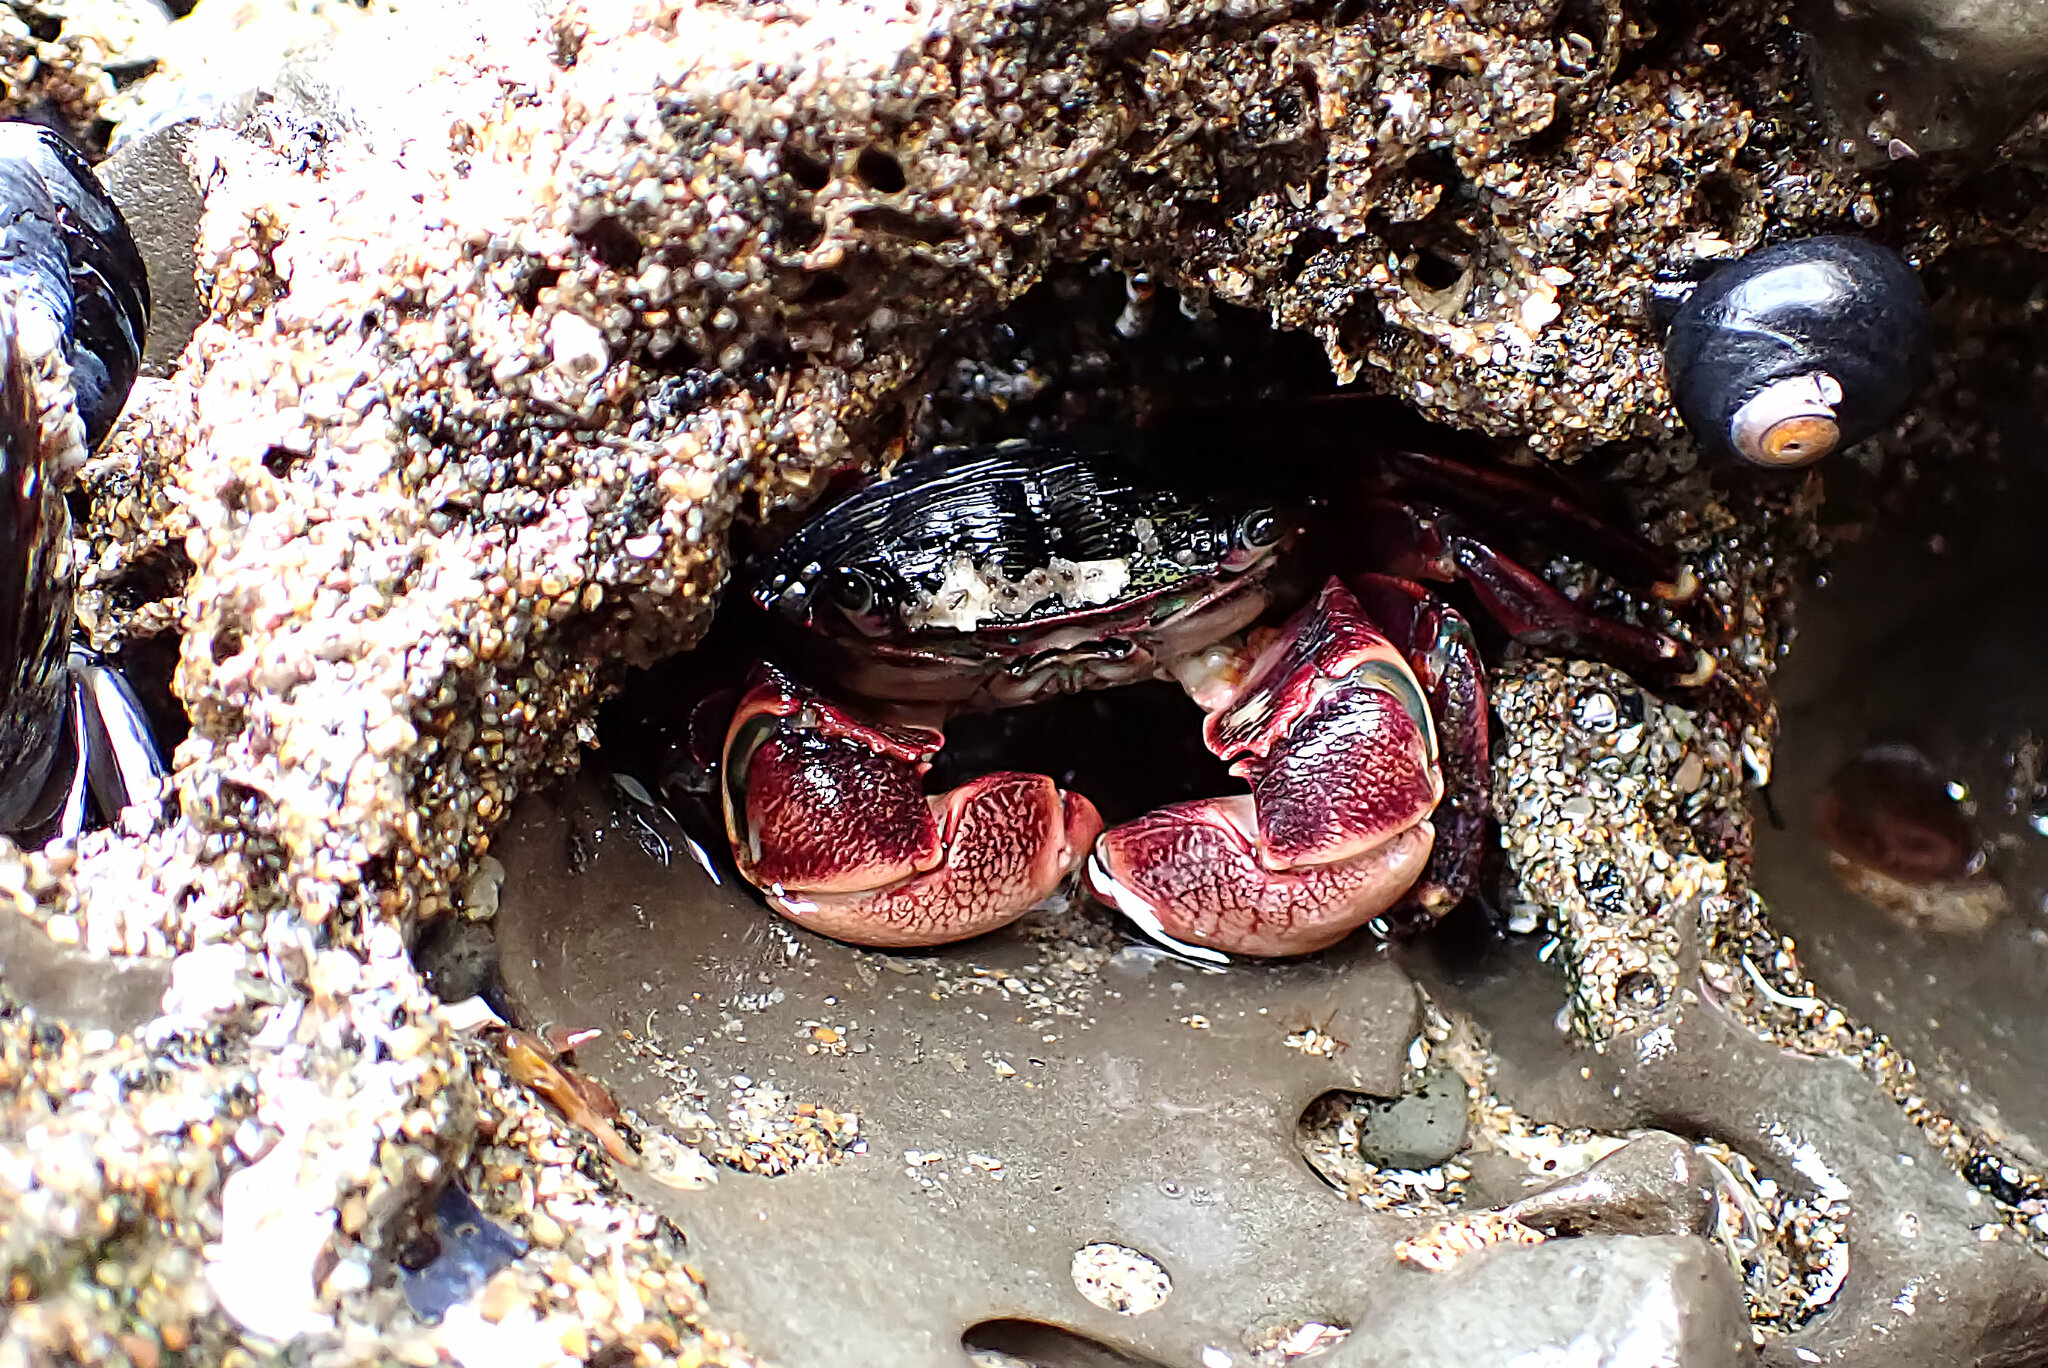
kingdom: Animalia
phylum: Arthropoda
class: Malacostraca
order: Decapoda
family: Grapsidae
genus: Pachygrapsus
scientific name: Pachygrapsus crassipes
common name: Striped shore crab
